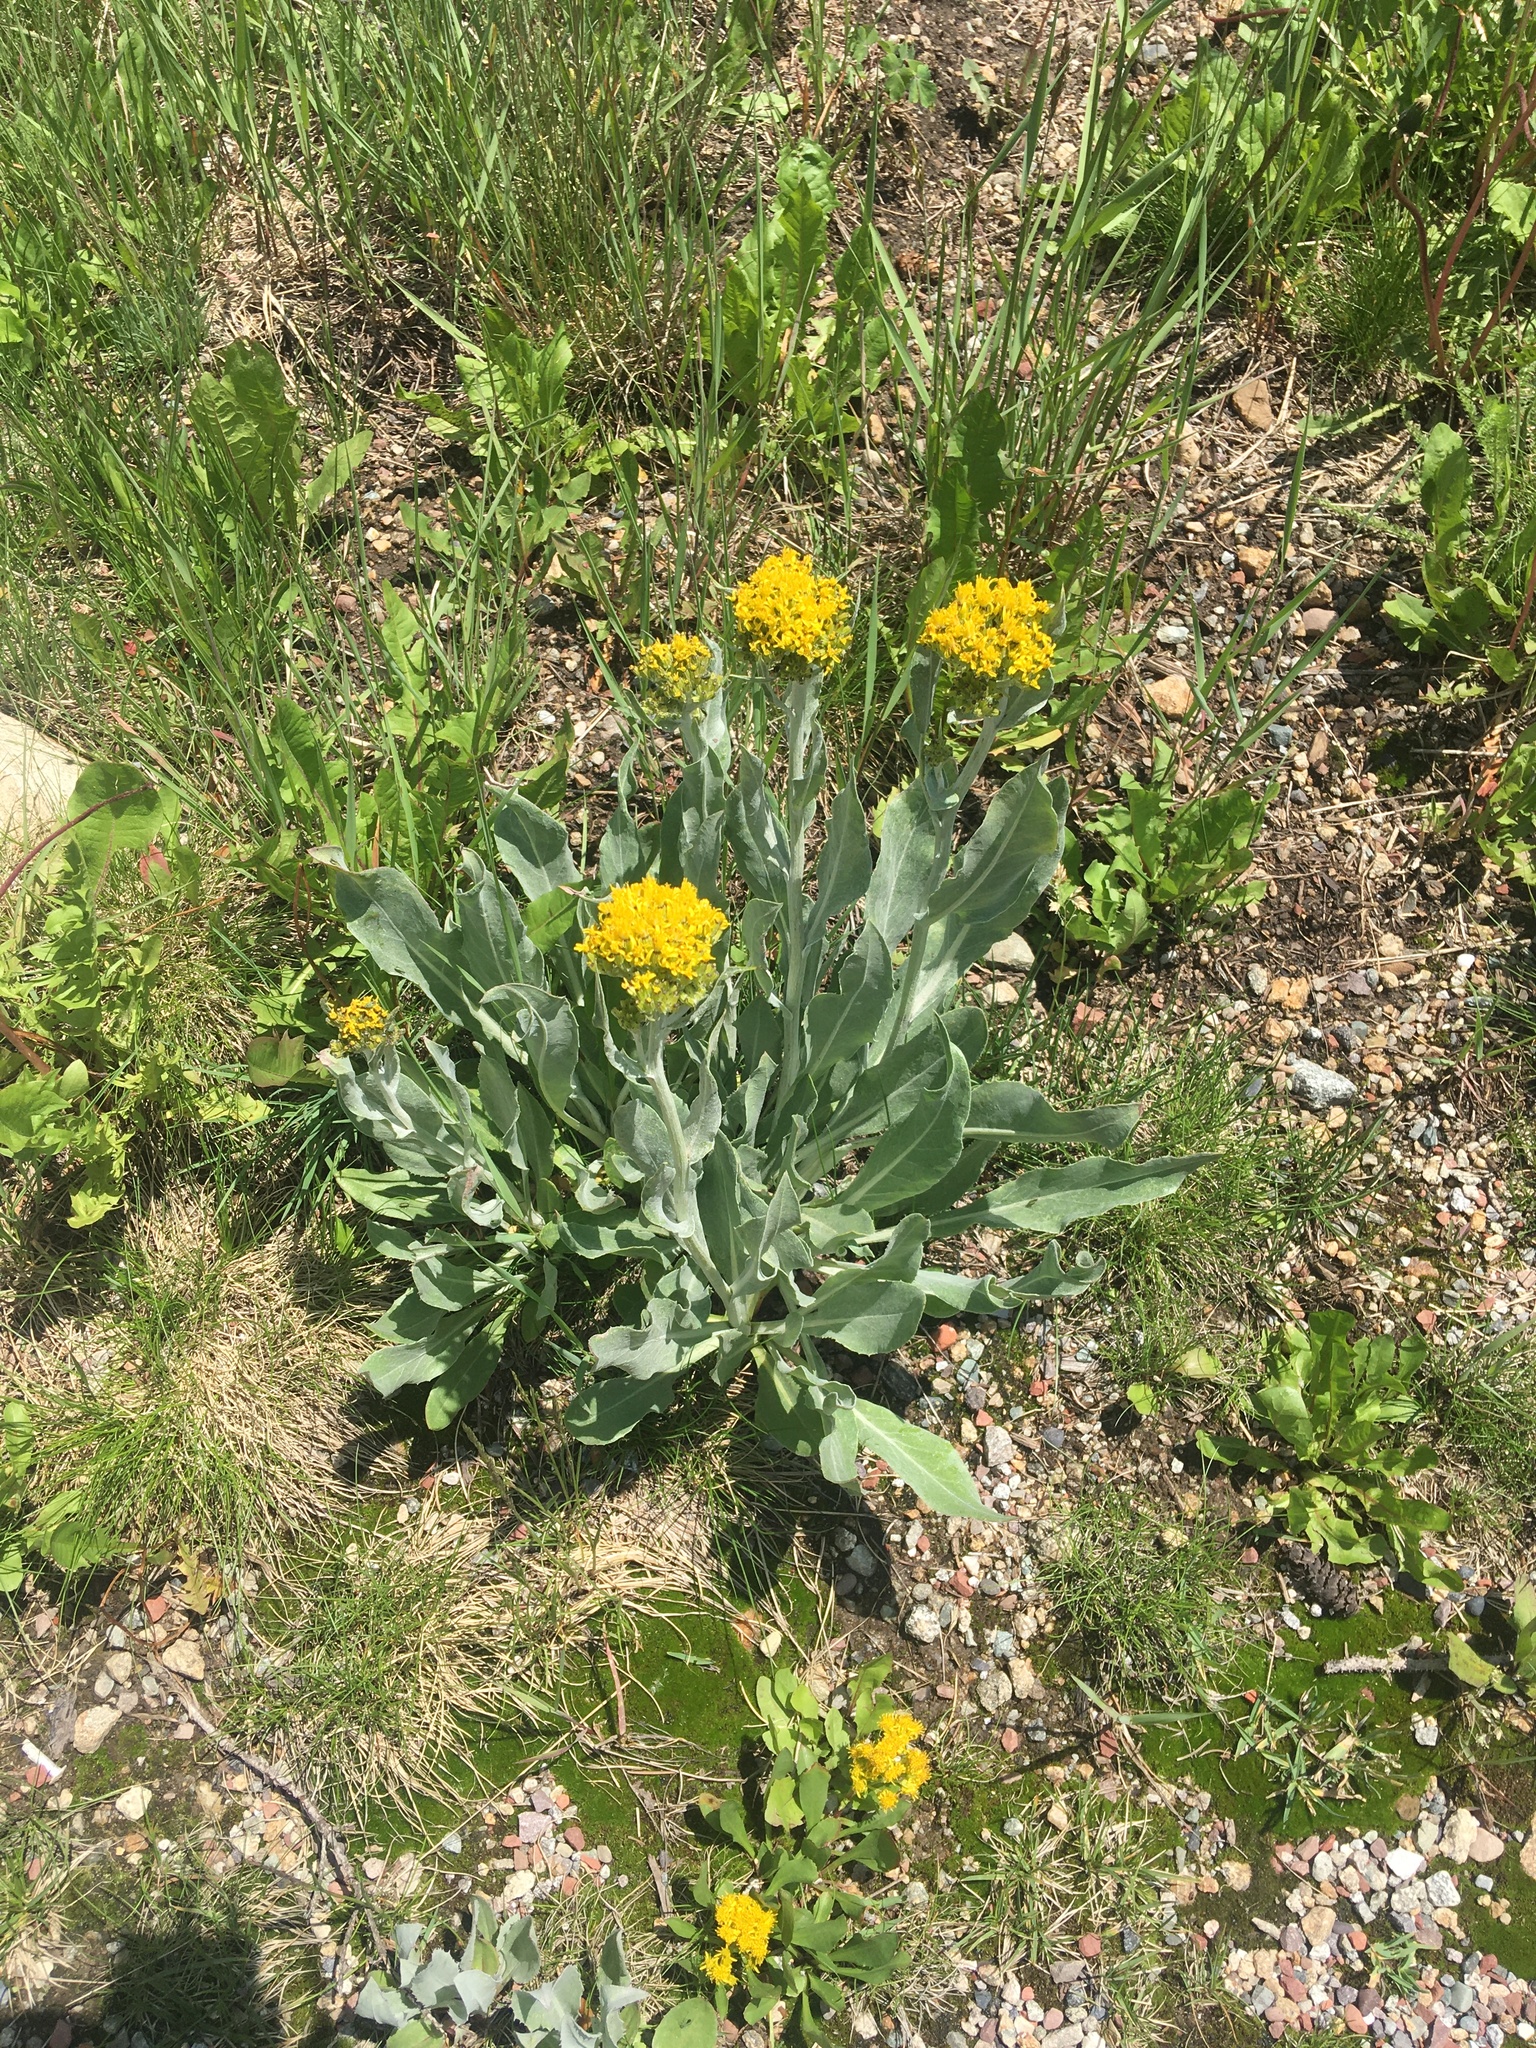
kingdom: Plantae
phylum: Tracheophyta
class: Magnoliopsida
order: Asterales
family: Asteraceae
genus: Senecio
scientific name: Senecio atratus
